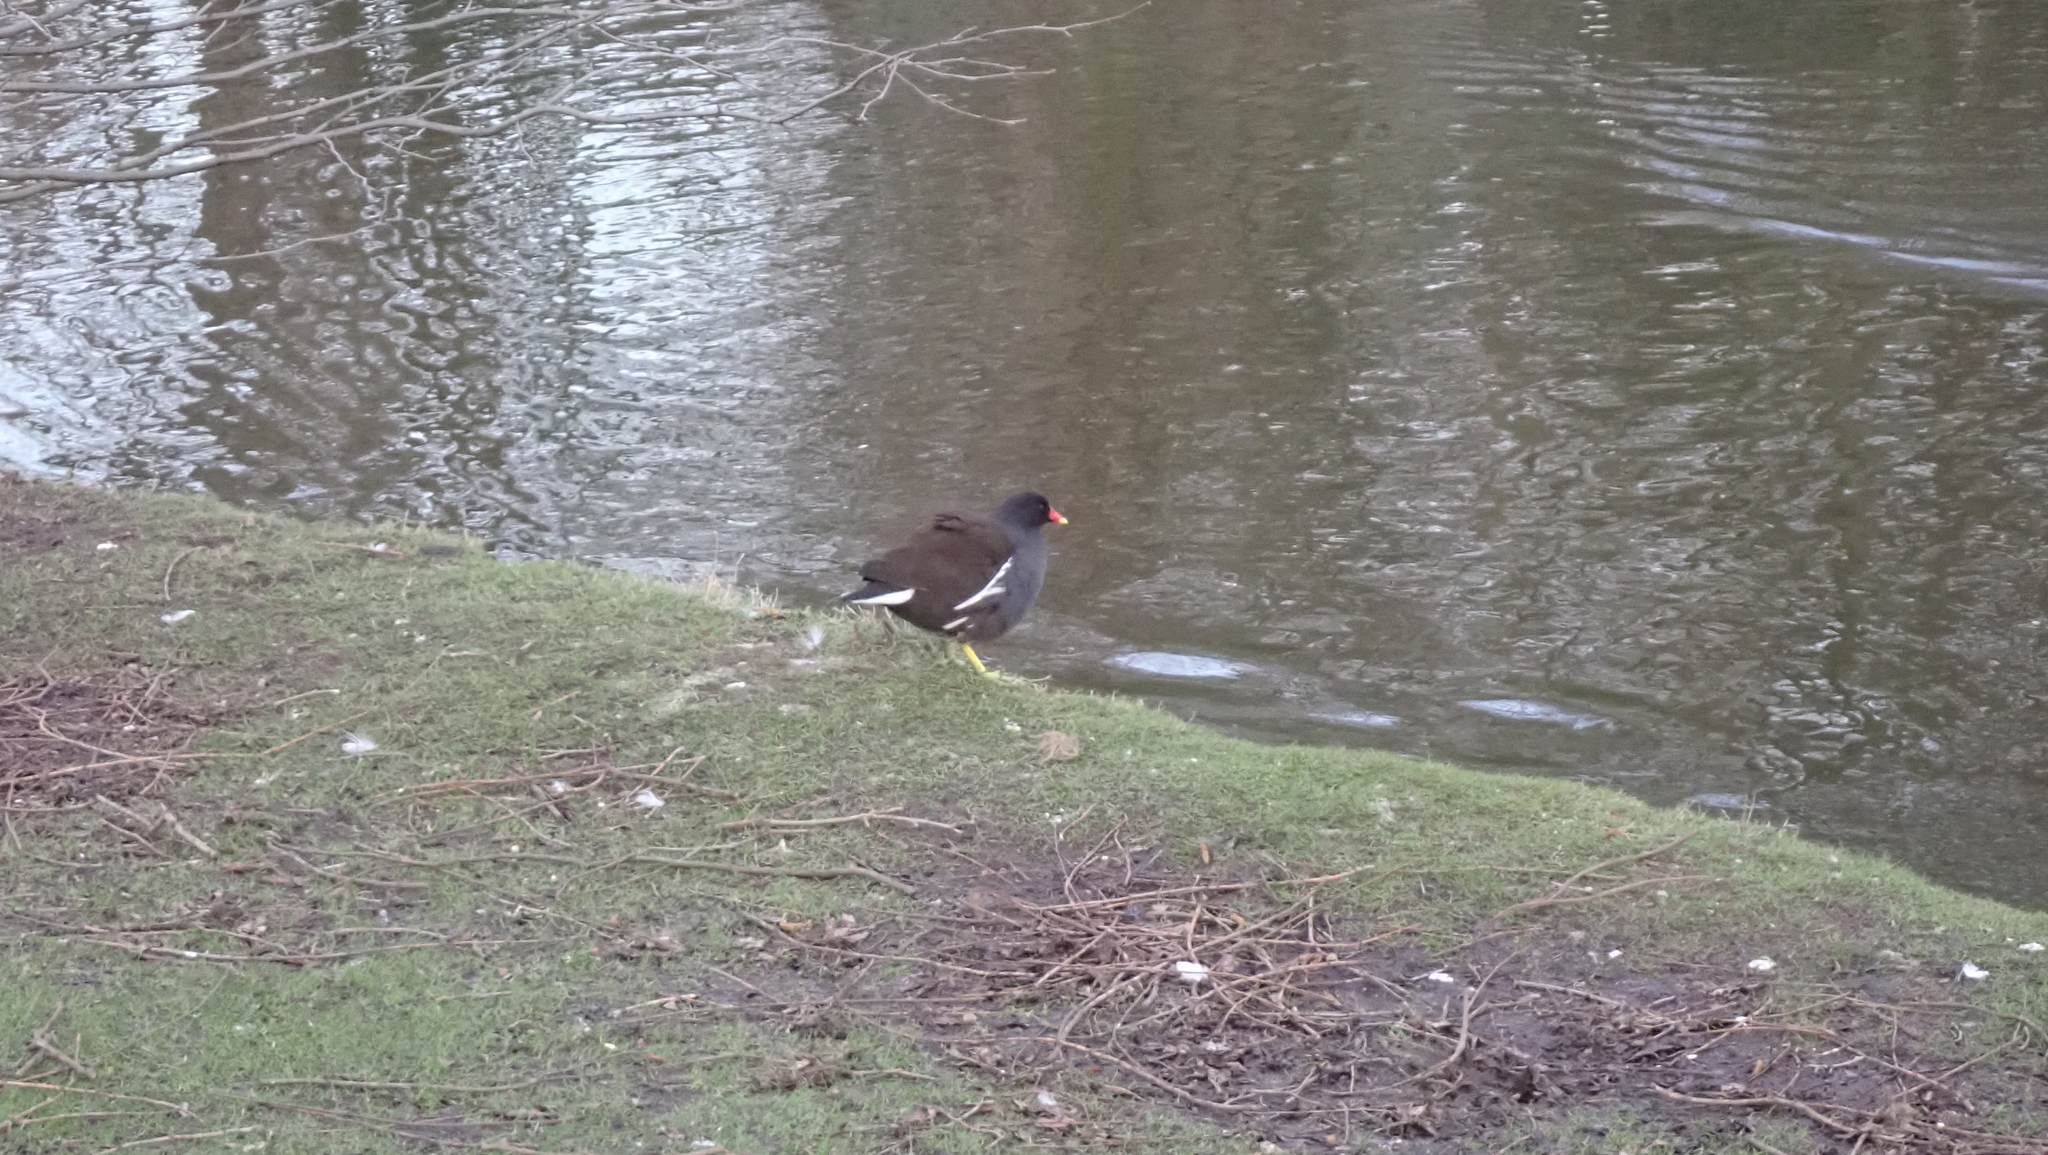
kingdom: Animalia
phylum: Chordata
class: Aves
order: Gruiformes
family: Rallidae
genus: Gallinula
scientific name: Gallinula chloropus
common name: Common moorhen
